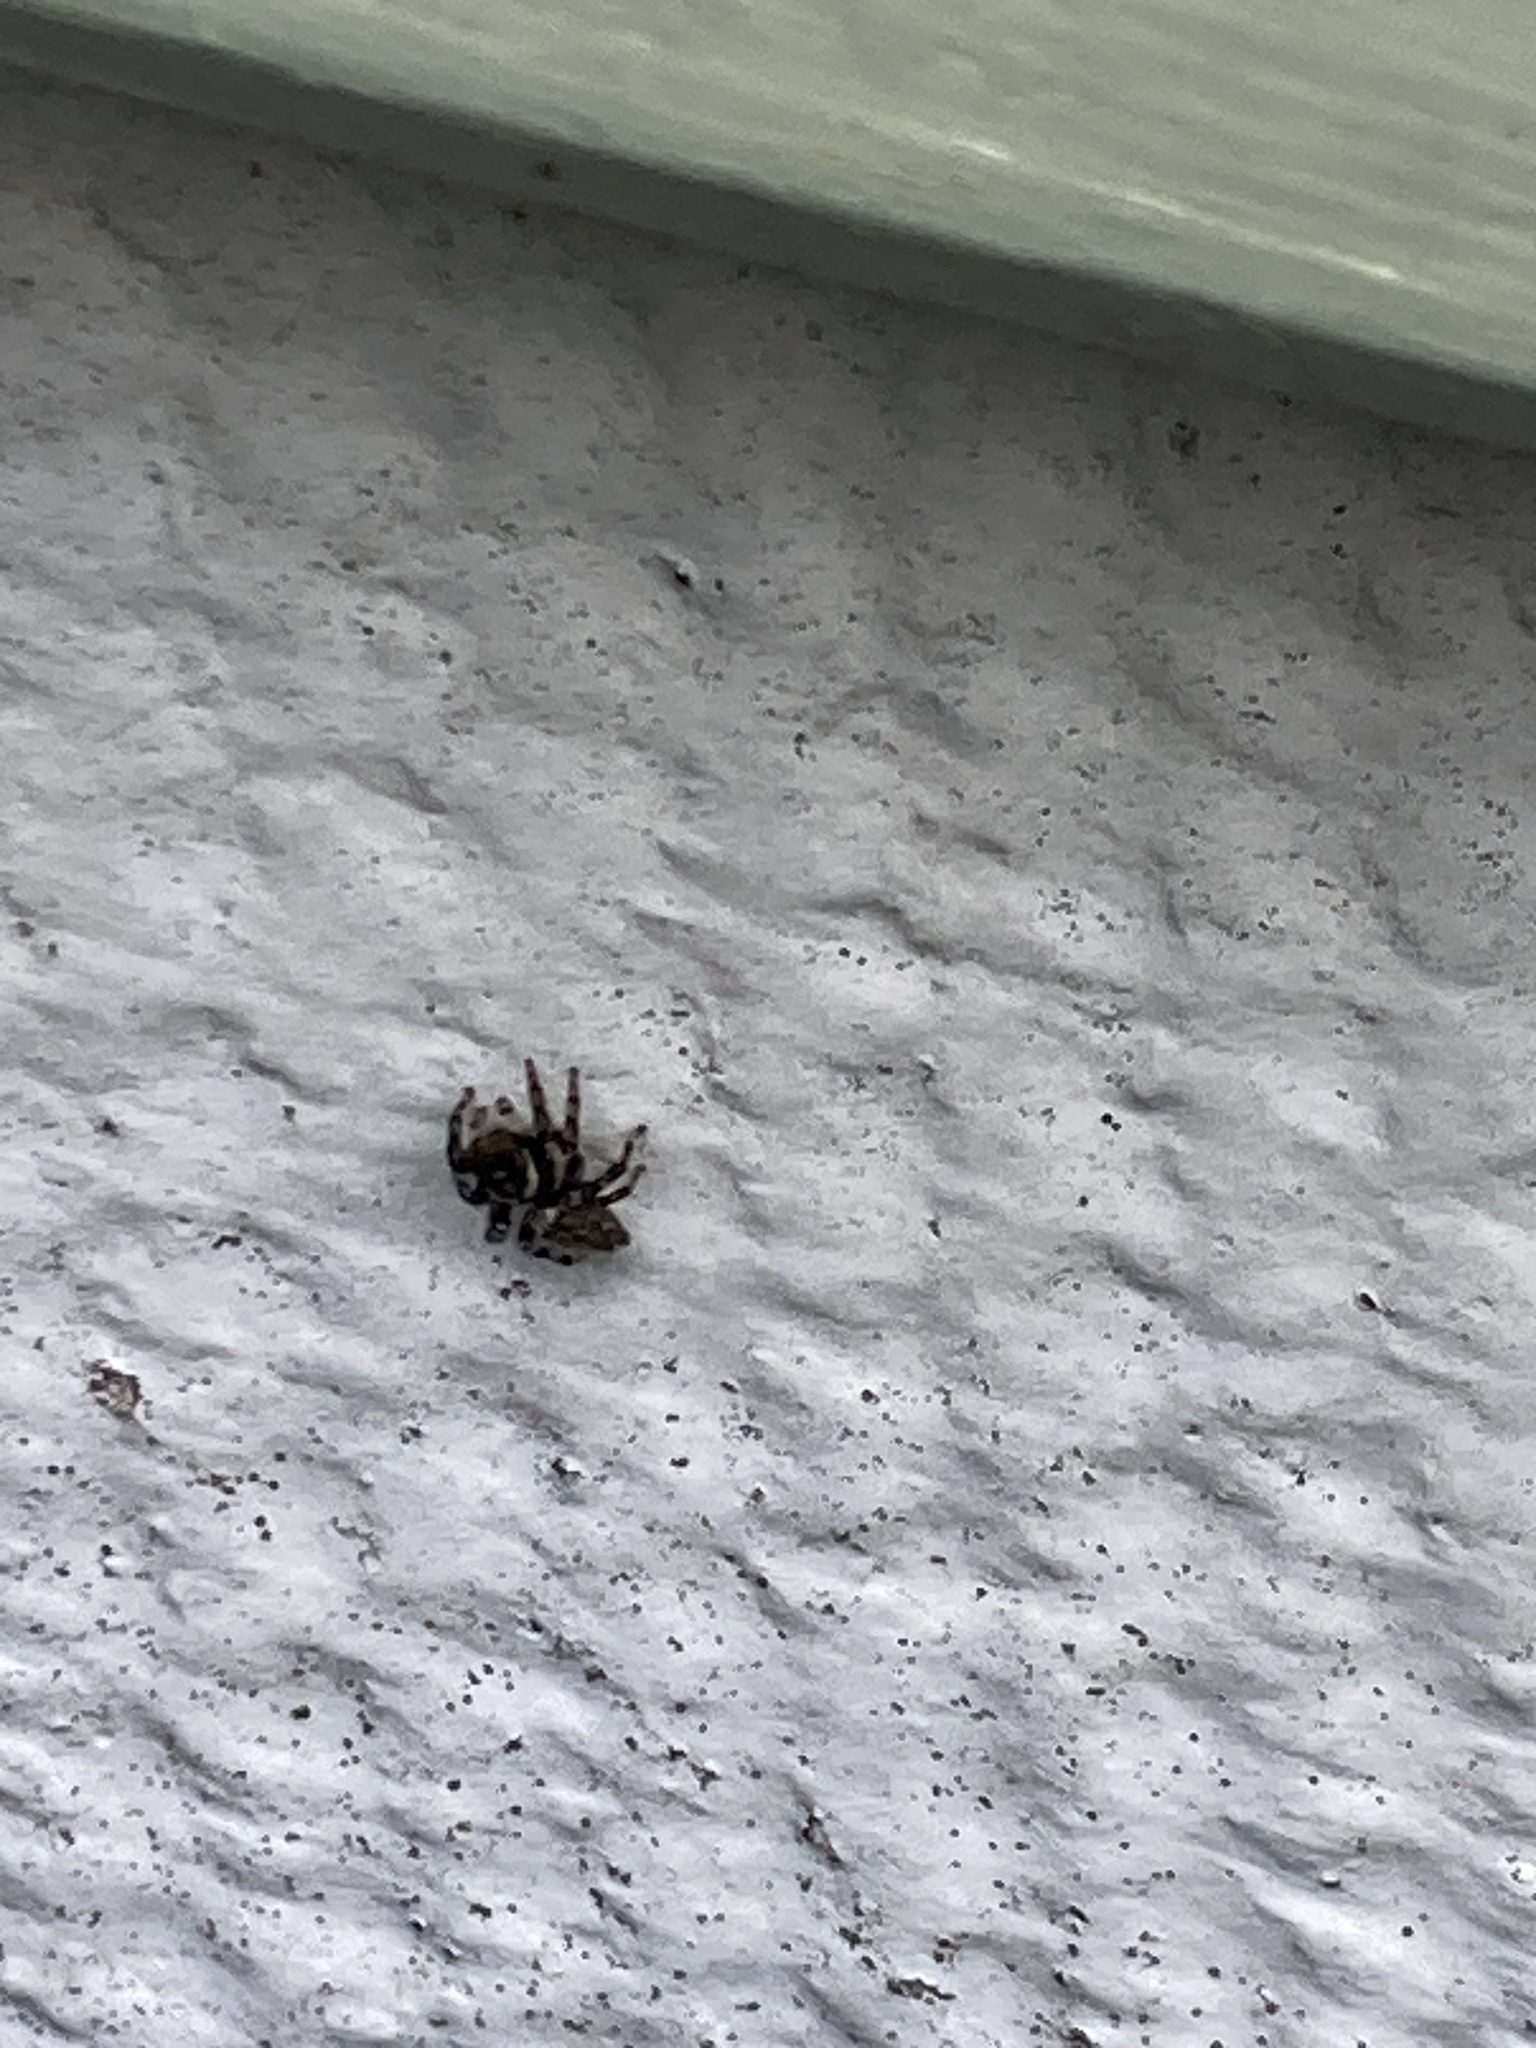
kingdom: Animalia
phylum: Arthropoda
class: Arachnida
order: Araneae
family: Salticidae
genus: Maratus
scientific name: Maratus griseus
